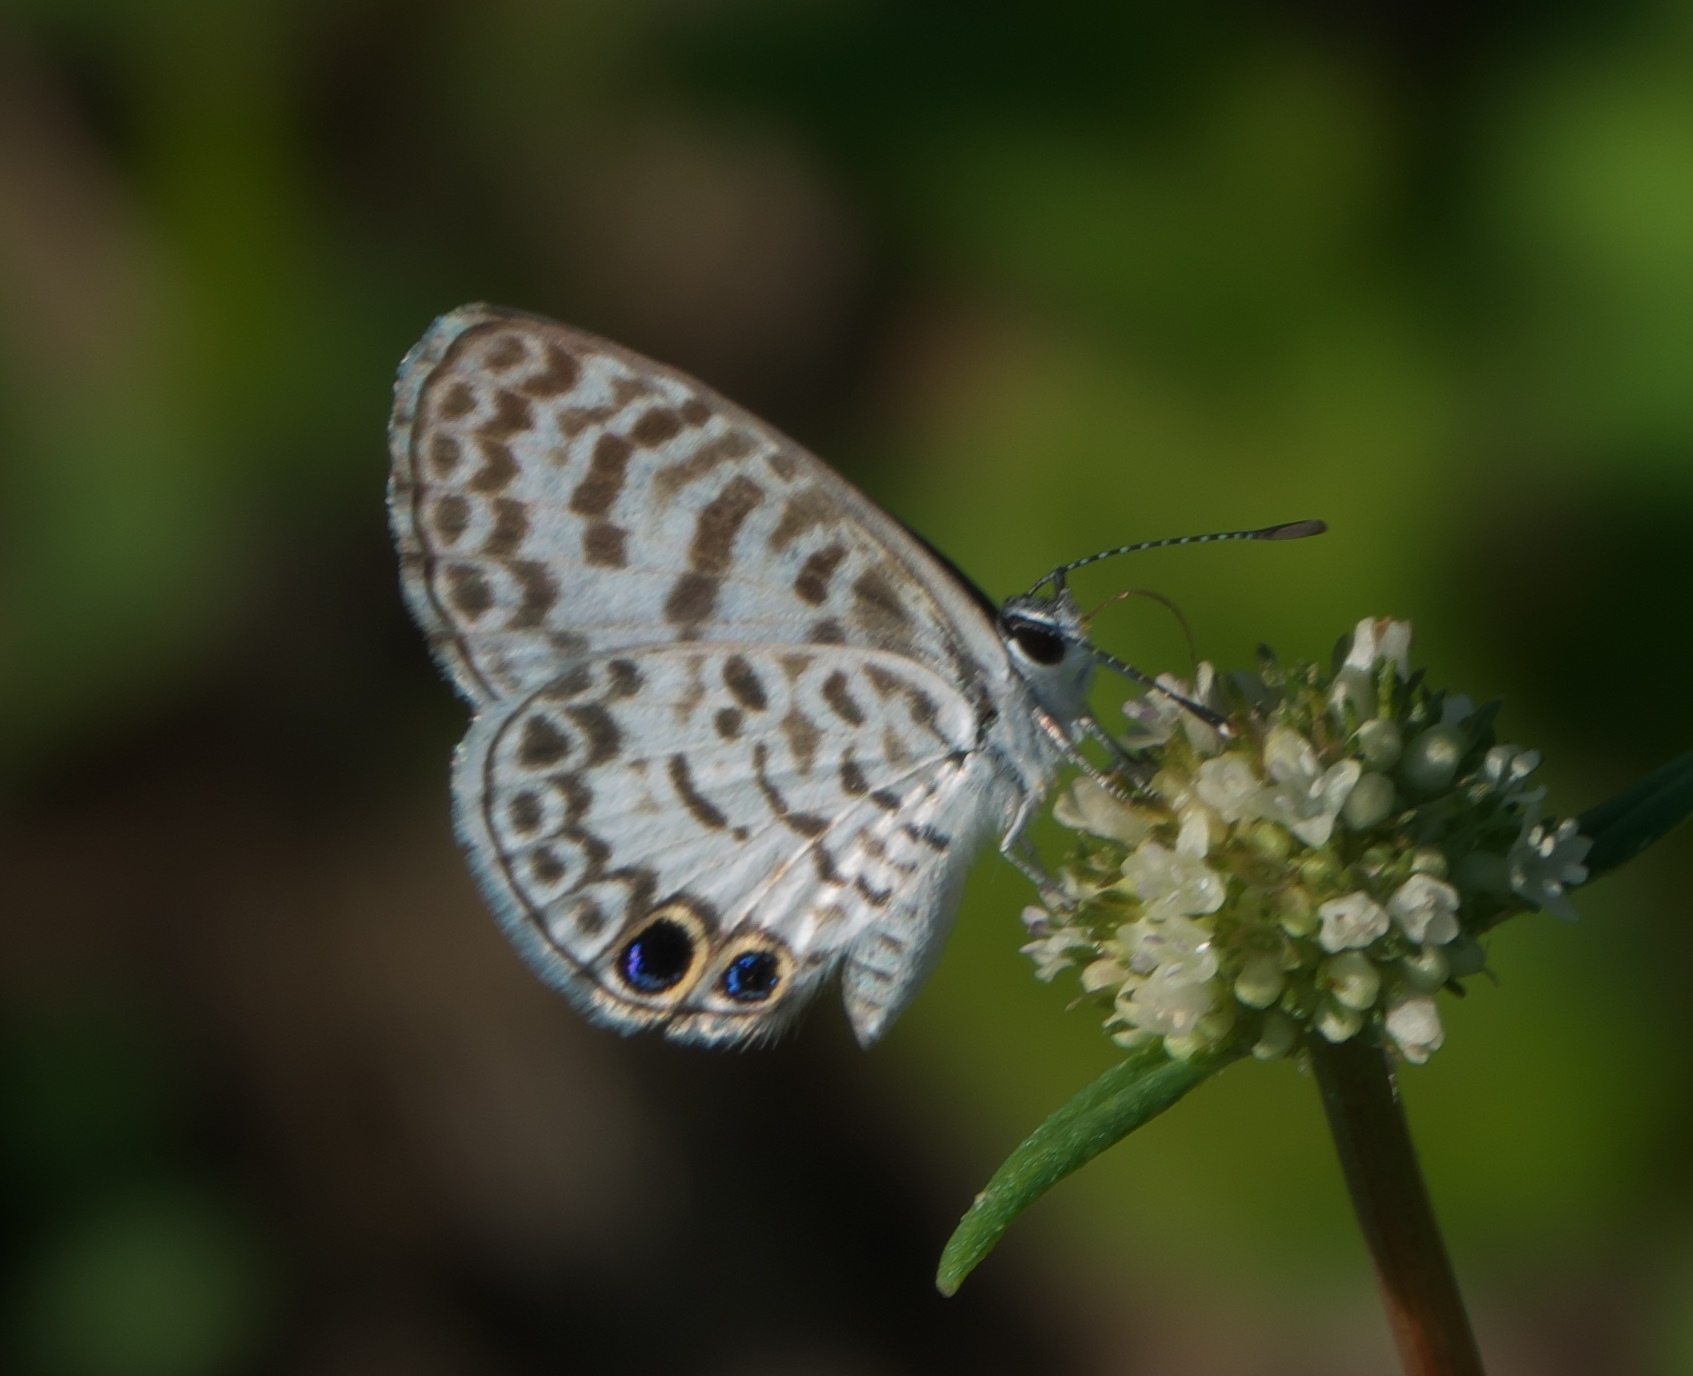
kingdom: Animalia
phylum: Arthropoda
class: Insecta
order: Lepidoptera
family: Lycaenidae
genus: Leptotes
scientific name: Leptotes cassius
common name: Cassius blue
